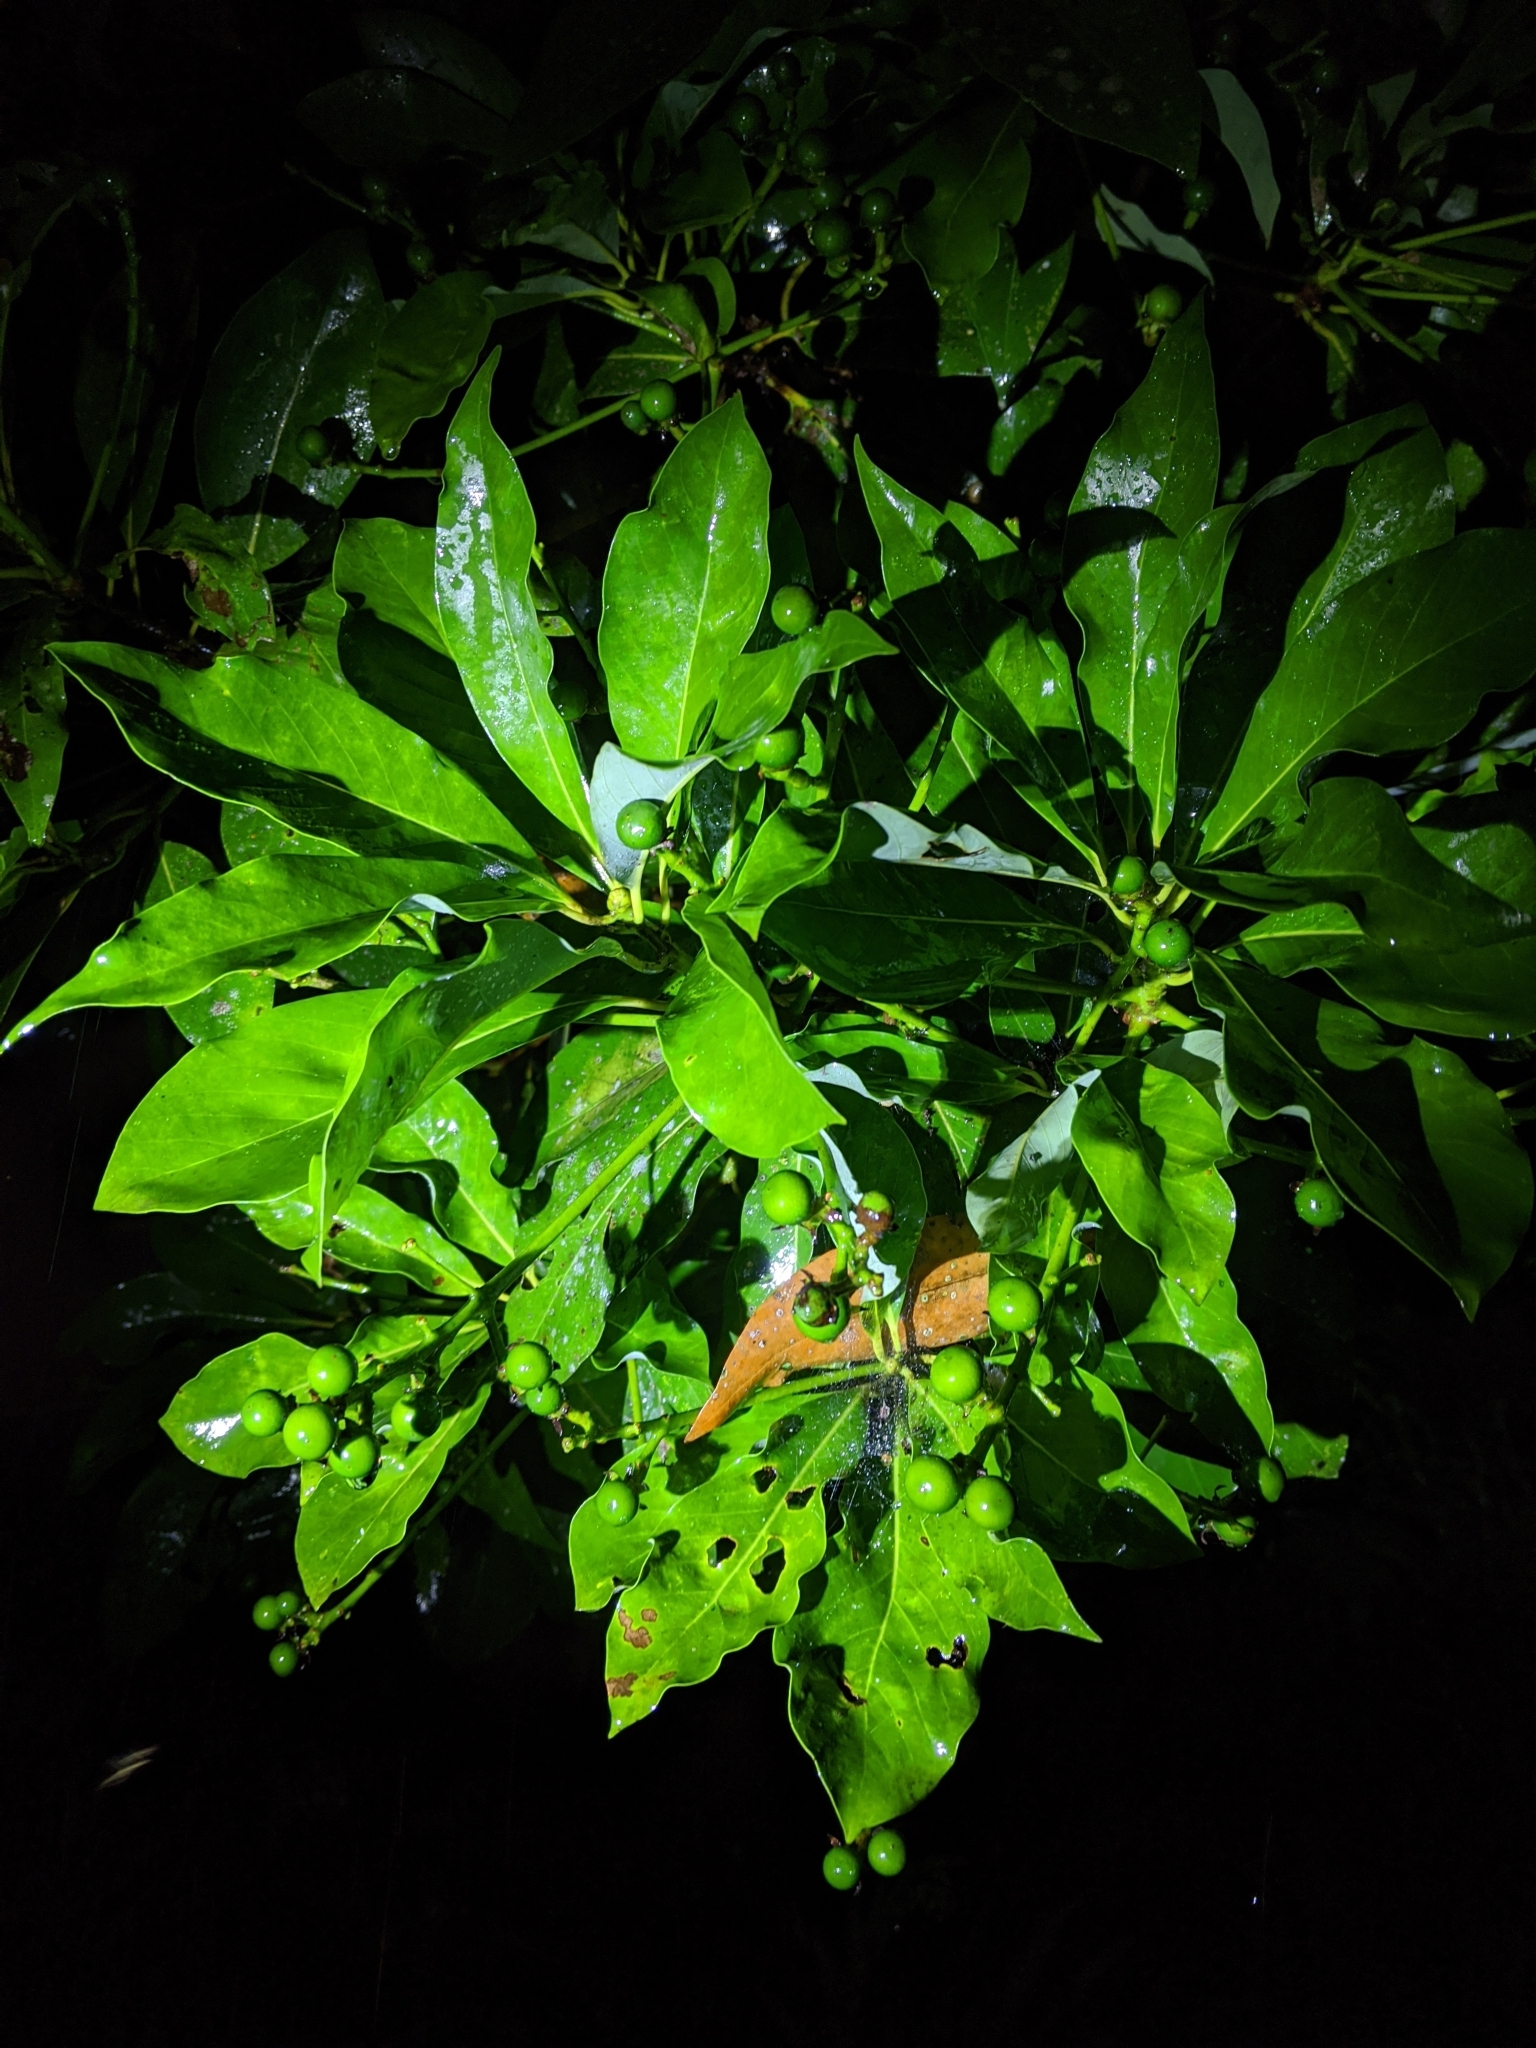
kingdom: Plantae
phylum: Tracheophyta
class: Magnoliopsida
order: Laurales
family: Lauraceae
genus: Machilus
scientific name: Machilus thunbergii
